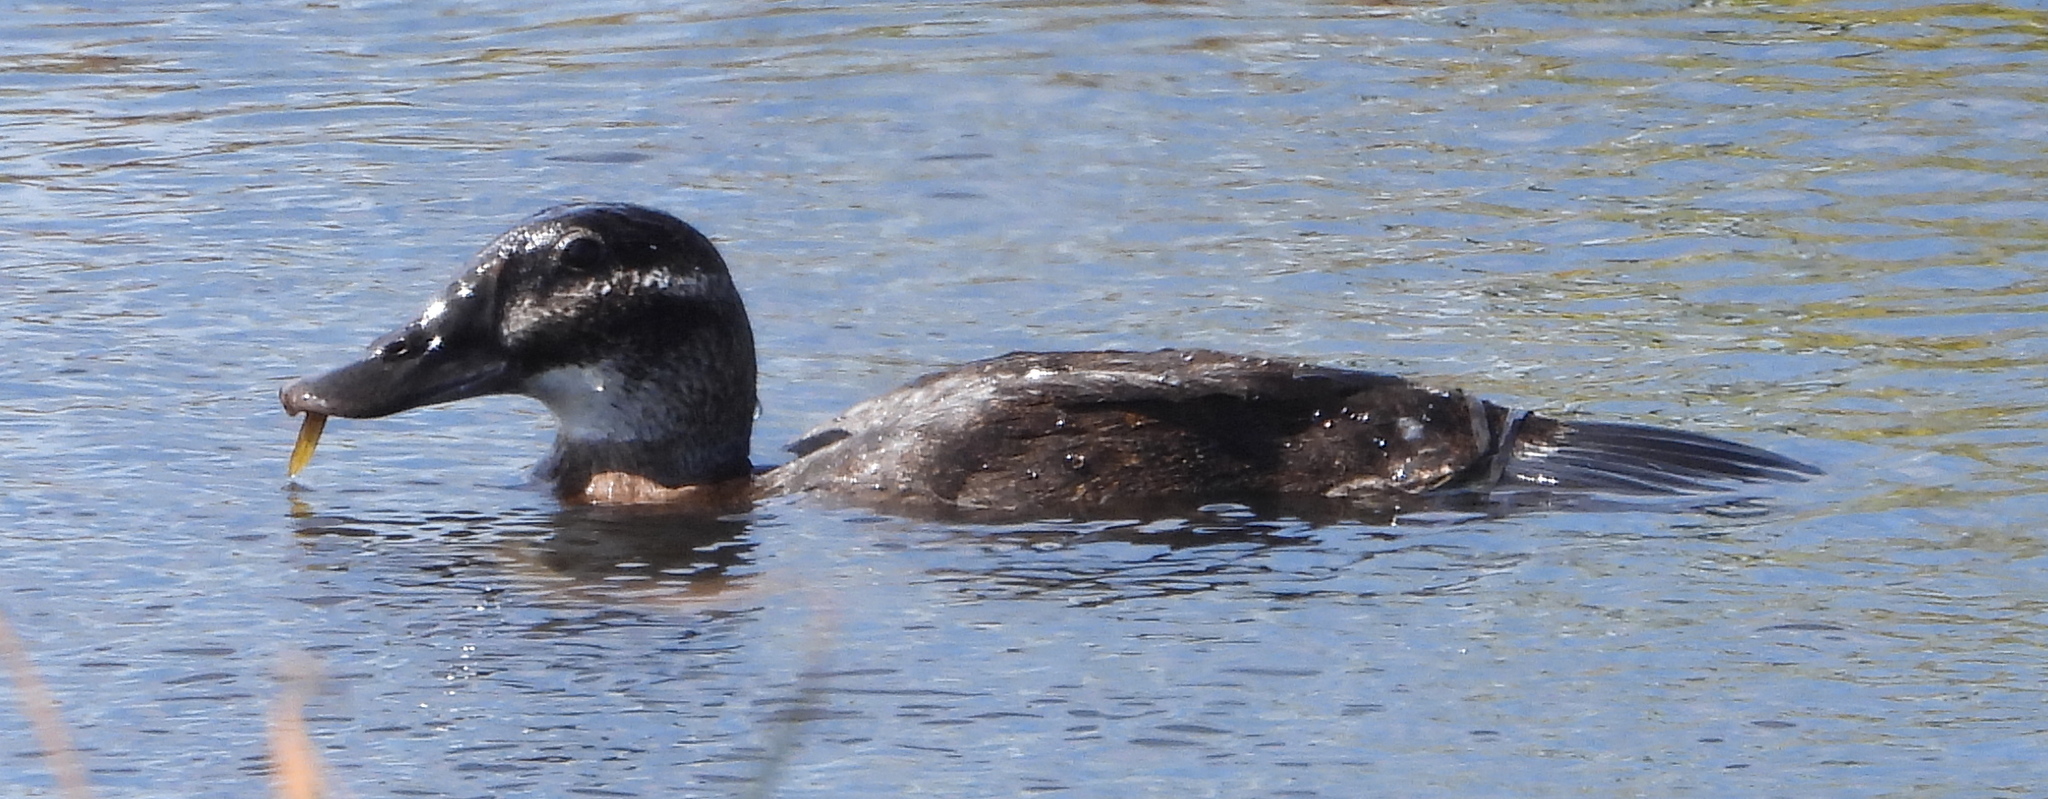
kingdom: Animalia
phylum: Chordata
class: Aves
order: Anseriformes
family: Anatidae
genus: Oxyura
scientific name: Oxyura maccoa
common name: Maccoa duck
